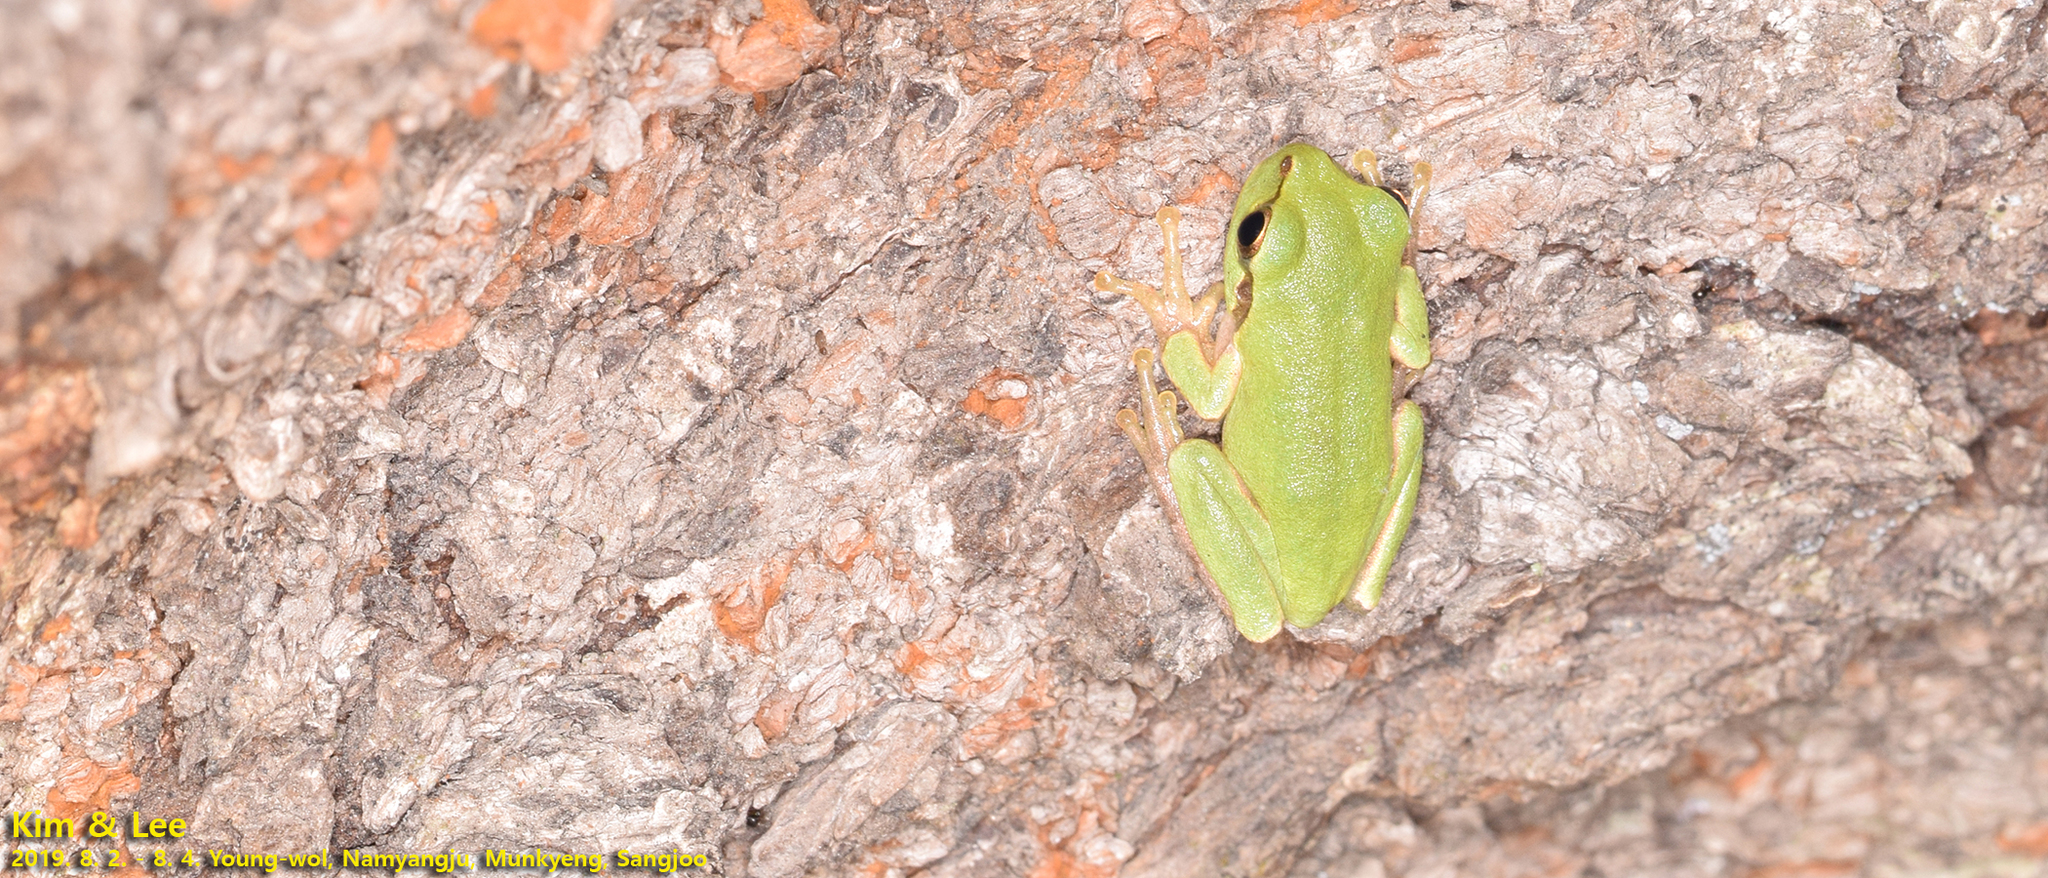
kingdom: Animalia
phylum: Chordata
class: Amphibia
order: Anura
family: Hylidae
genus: Dryophytes
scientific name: Dryophytes japonicus
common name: Japanese treefrog
